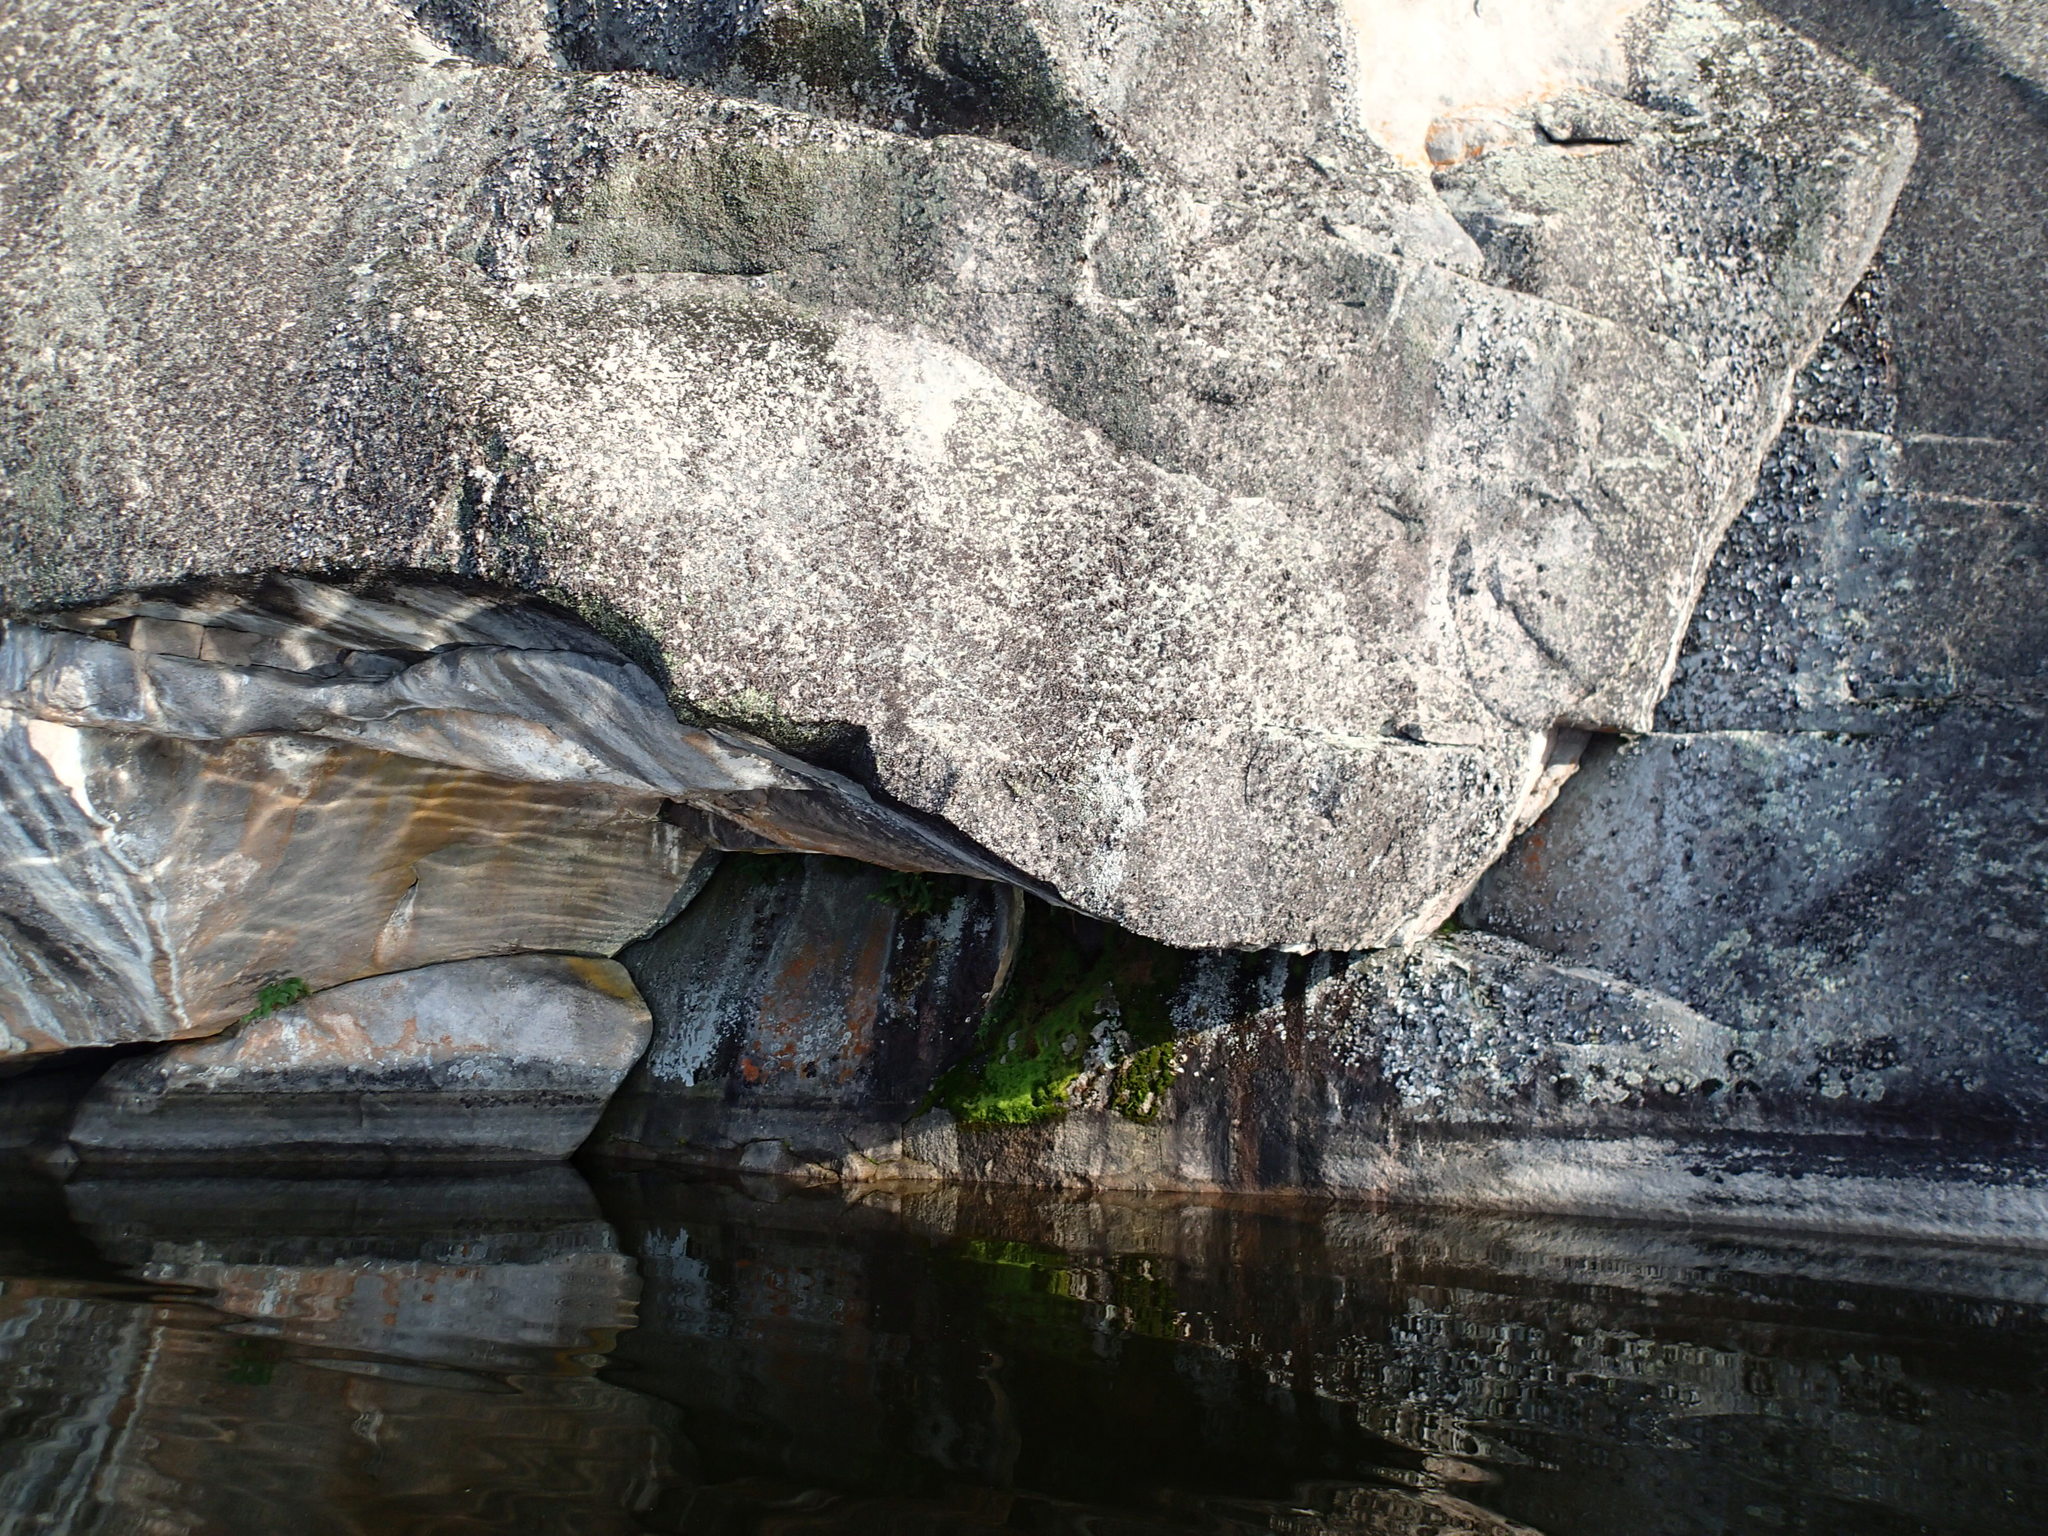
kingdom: Plantae
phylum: Tracheophyta
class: Polypodiopsida
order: Polypodiales
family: Dryopteridaceae
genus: Dryopteris
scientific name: Dryopteris fragrans
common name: Fragrant wood fern
